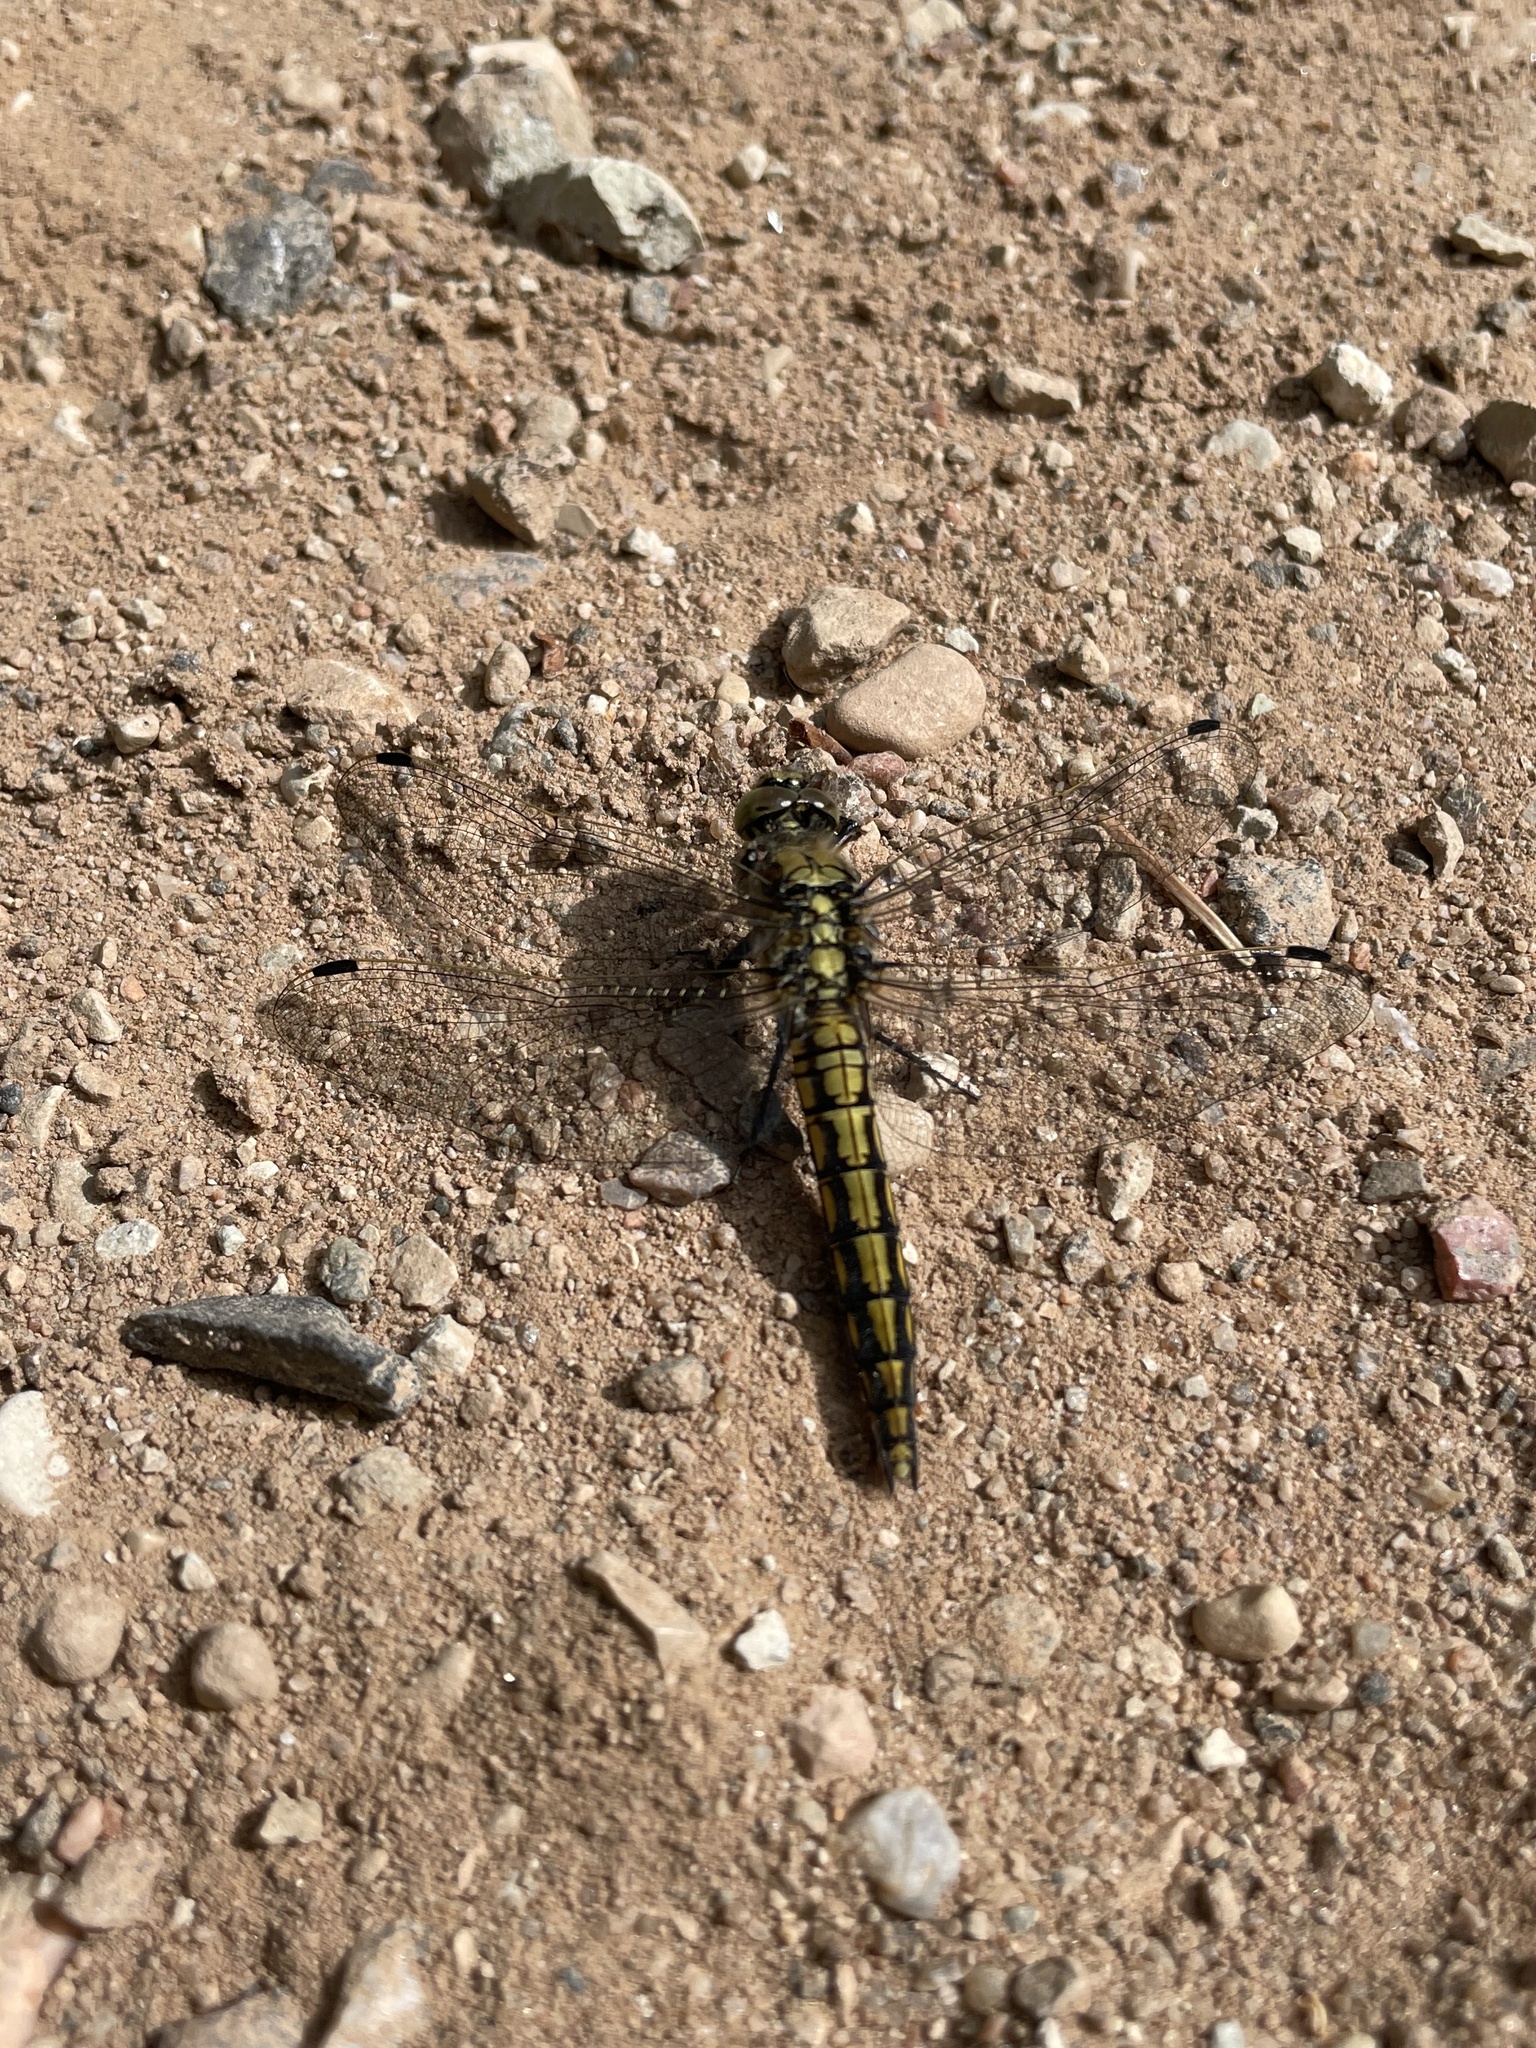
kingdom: Animalia
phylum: Arthropoda
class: Insecta
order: Odonata
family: Libellulidae
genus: Orthetrum
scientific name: Orthetrum cancellatum
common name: Black-tailed skimmer
